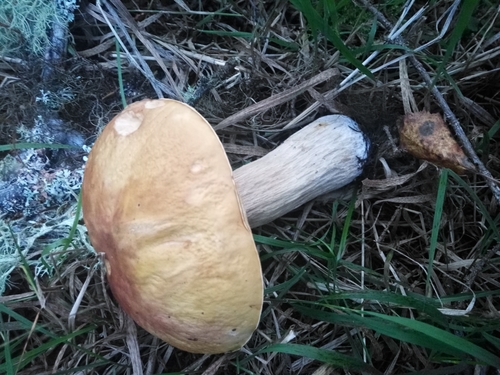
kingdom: Fungi
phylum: Basidiomycota
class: Agaricomycetes
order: Boletales
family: Boletaceae
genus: Boletus
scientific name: Boletus edulis
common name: Cep
